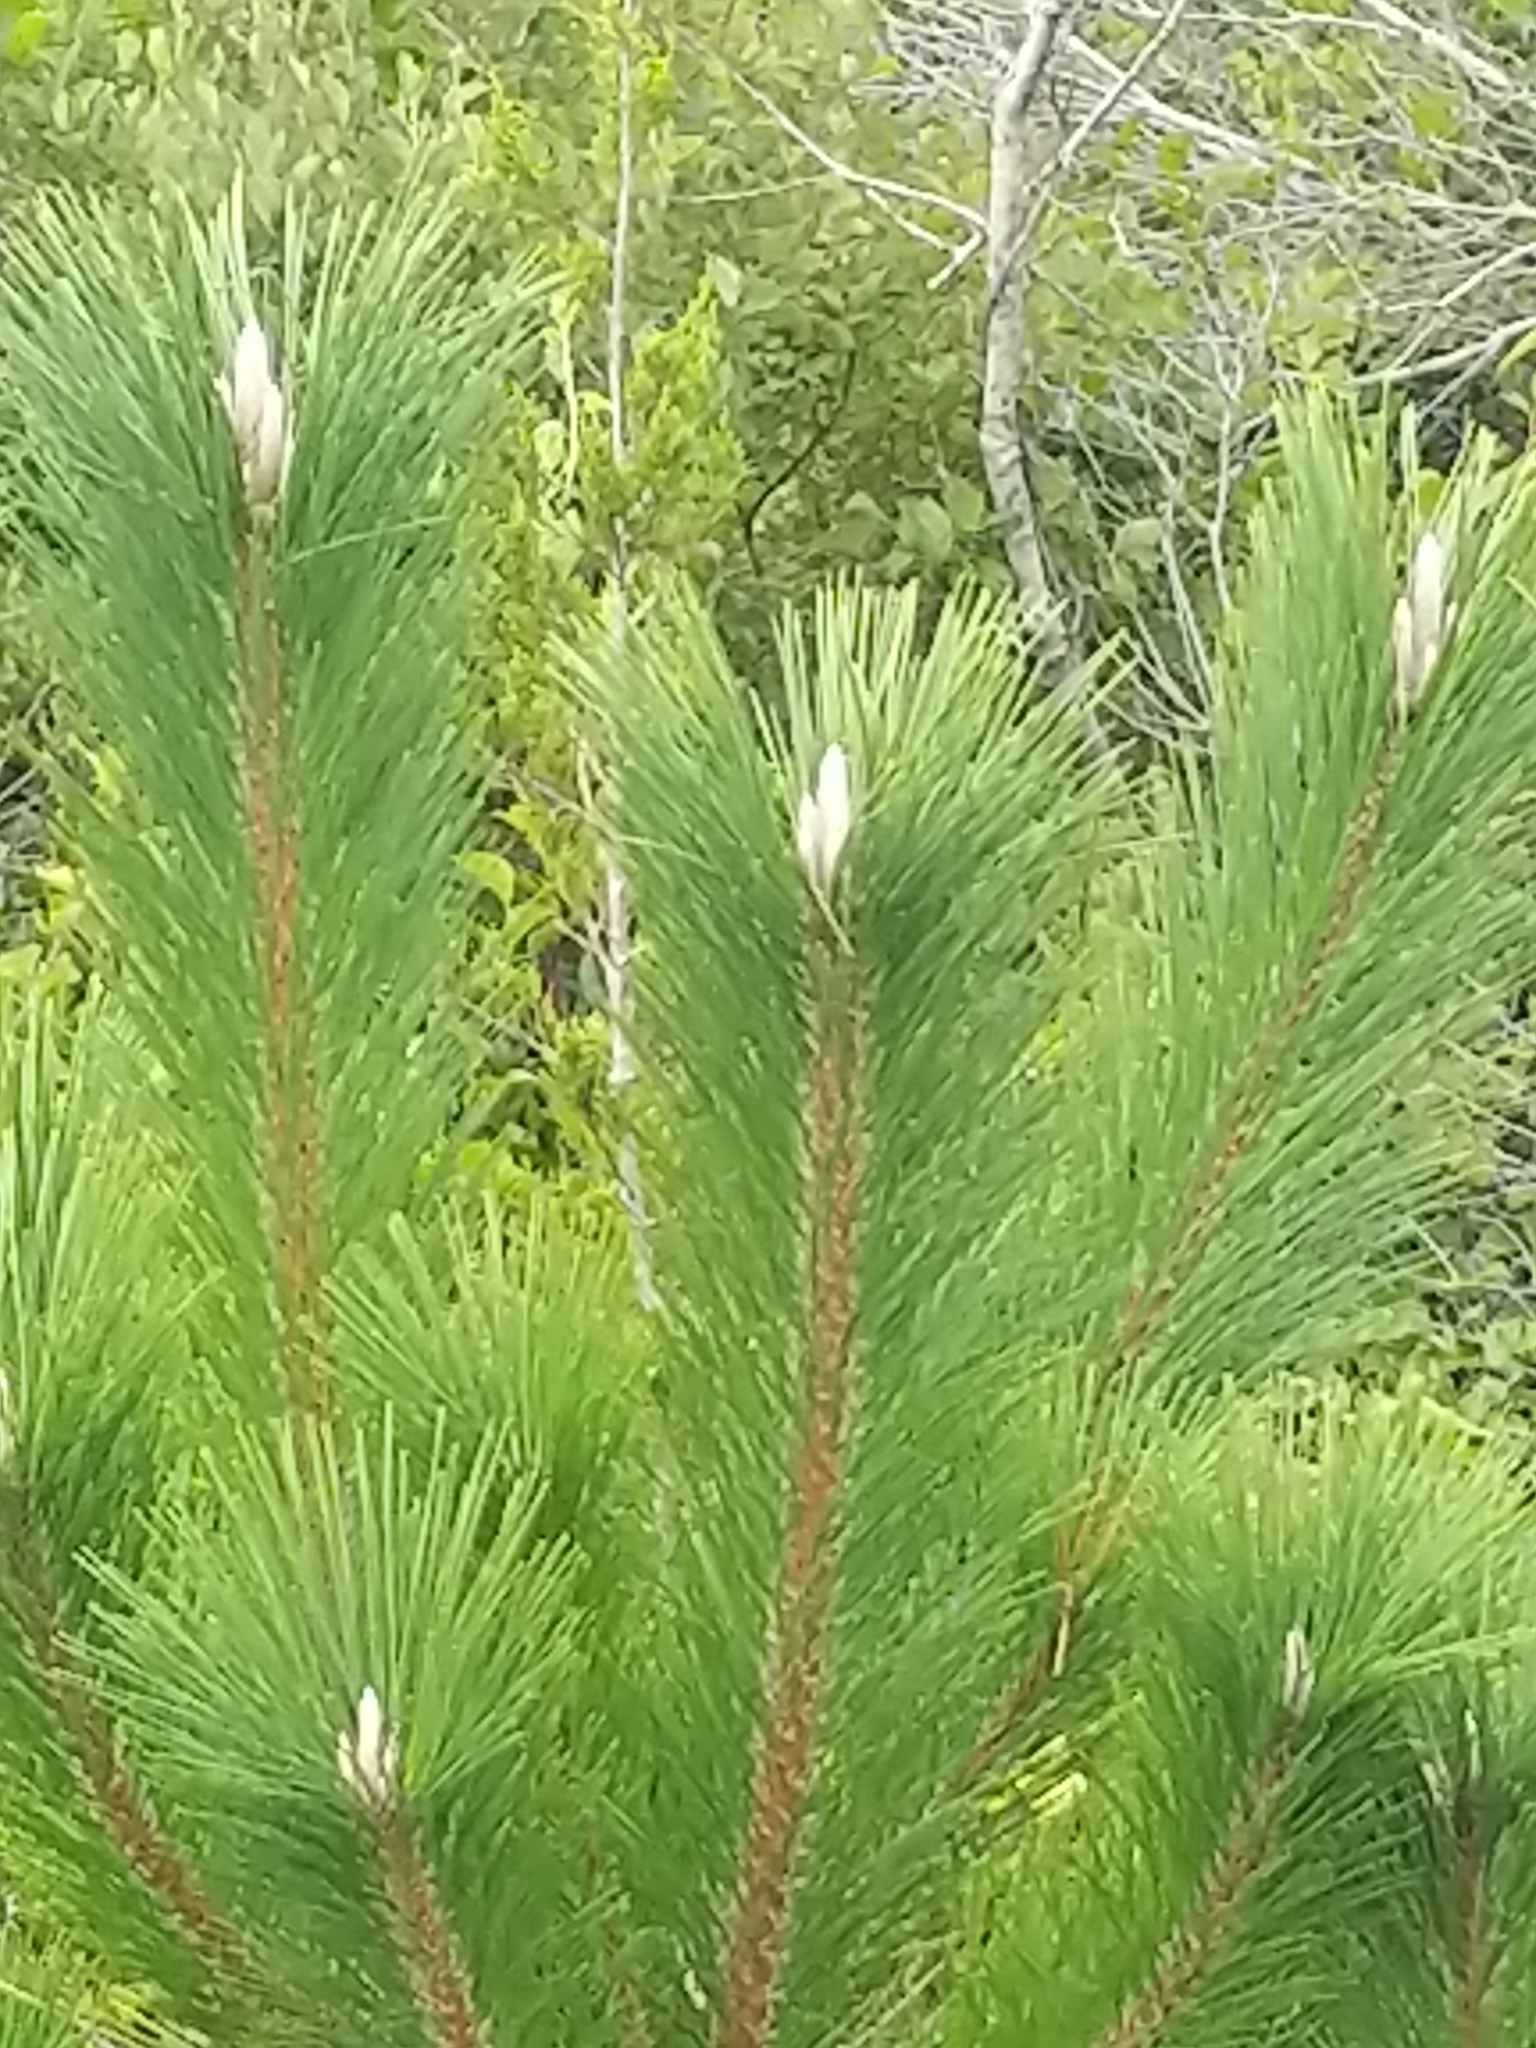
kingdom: Plantae
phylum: Tracheophyta
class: Pinopsida
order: Pinales
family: Pinaceae
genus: Pinus
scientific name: Pinus thunbergii
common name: Japanese black pine
